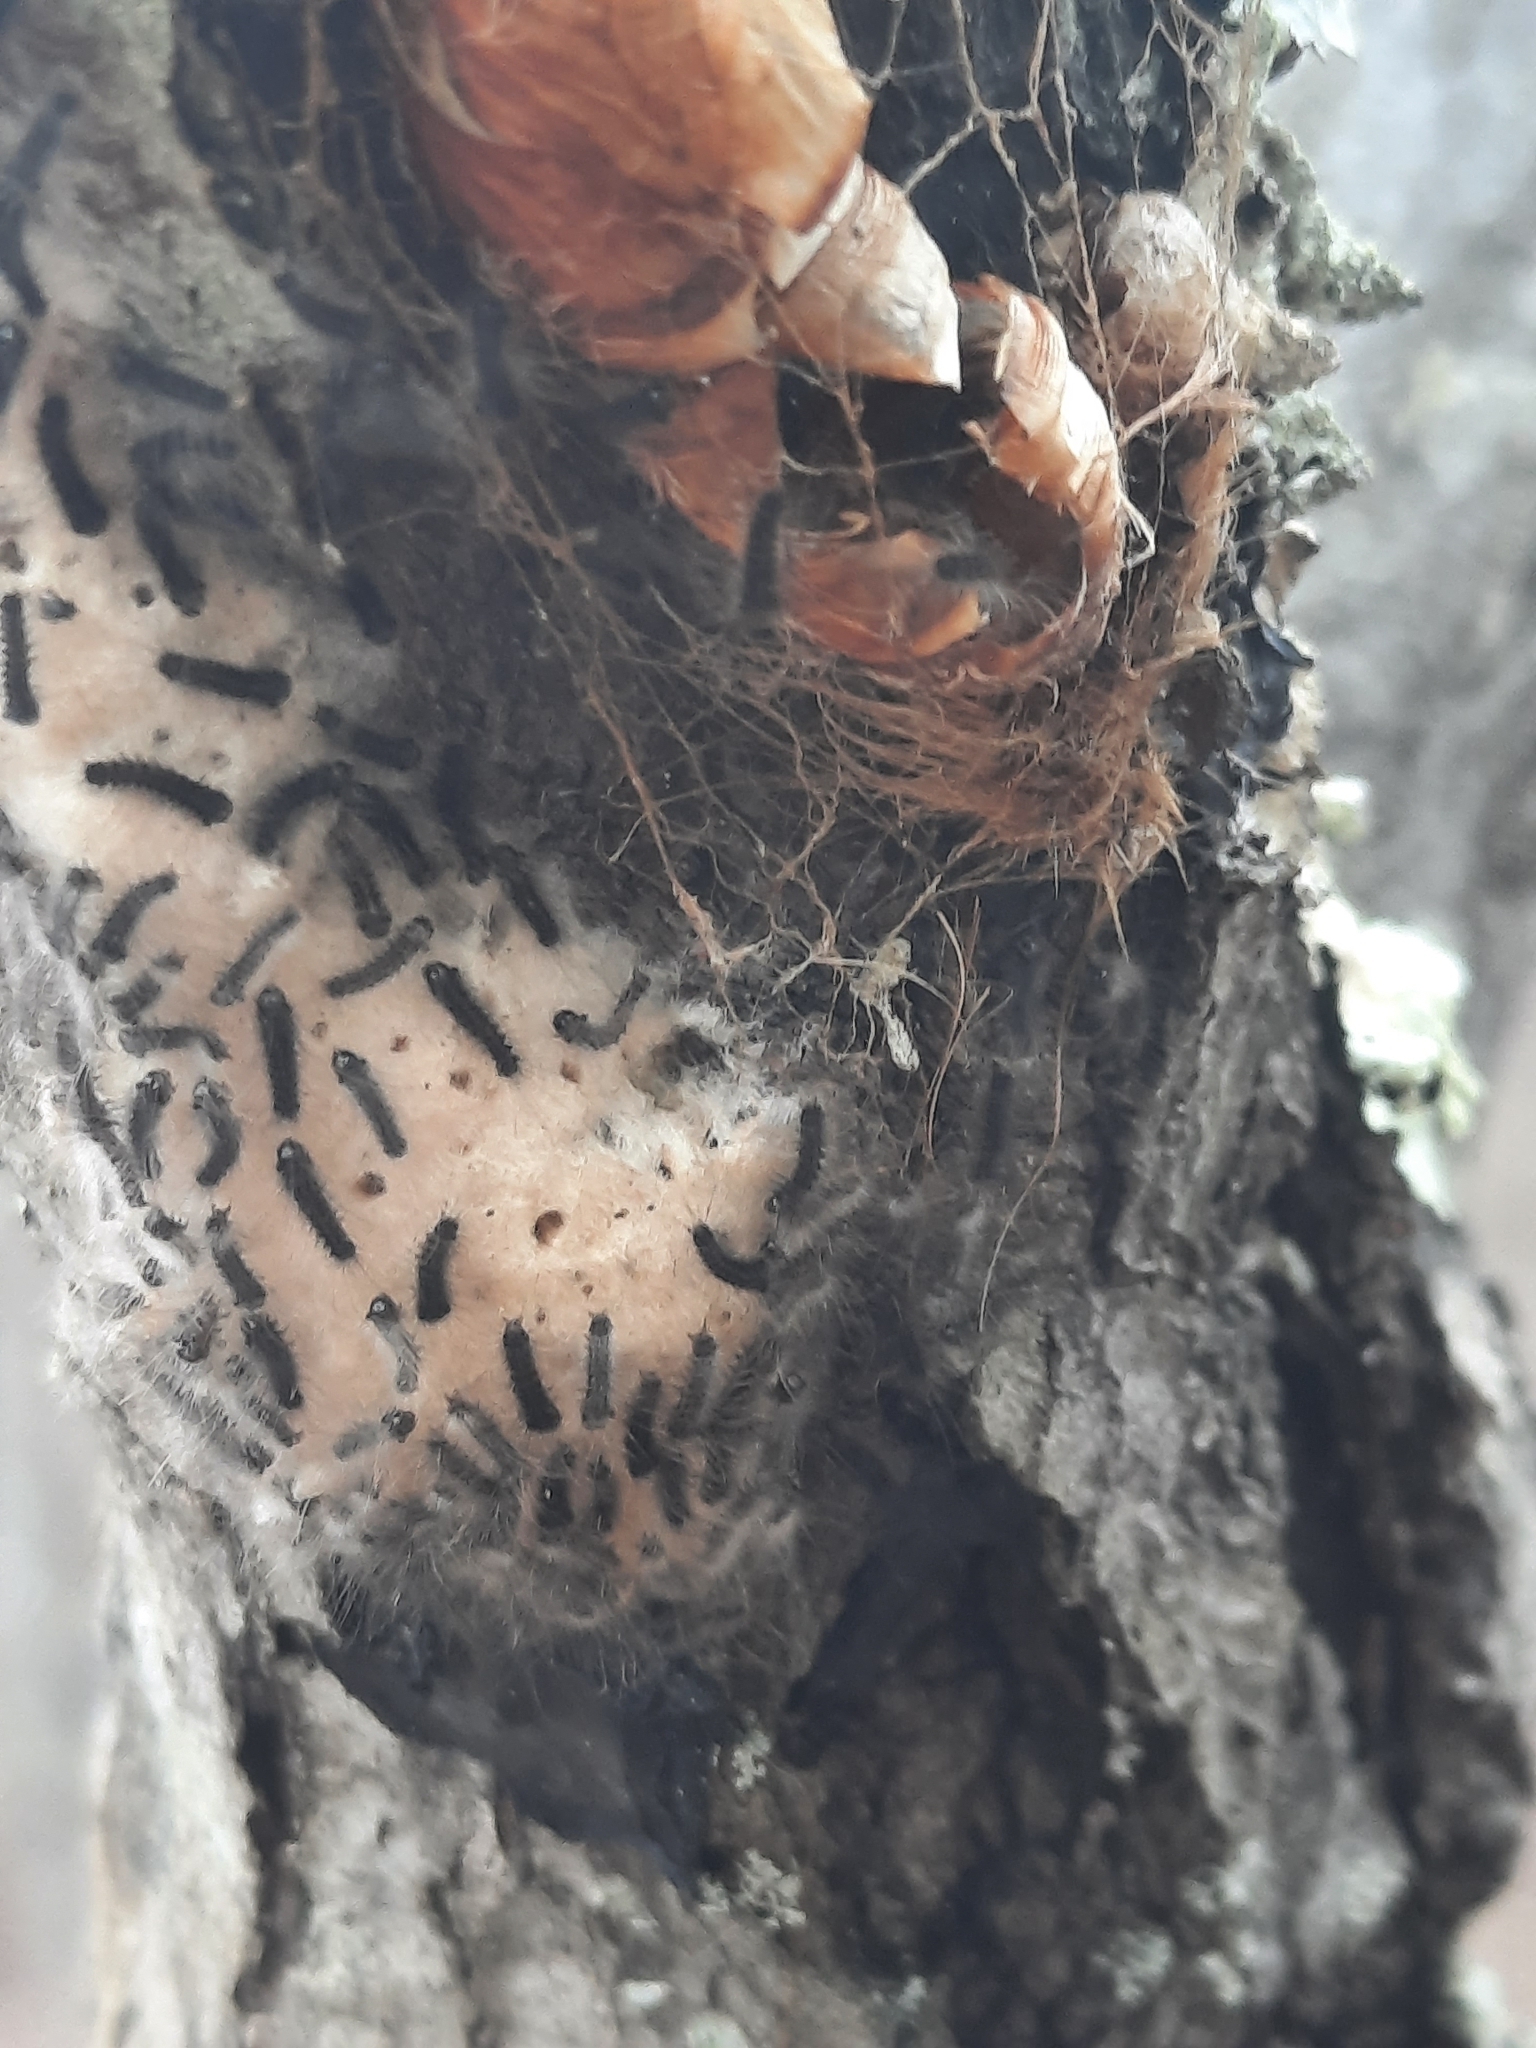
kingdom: Animalia
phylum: Arthropoda
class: Insecta
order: Lepidoptera
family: Erebidae
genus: Lymantria
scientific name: Lymantria dispar
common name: Gypsy moth
